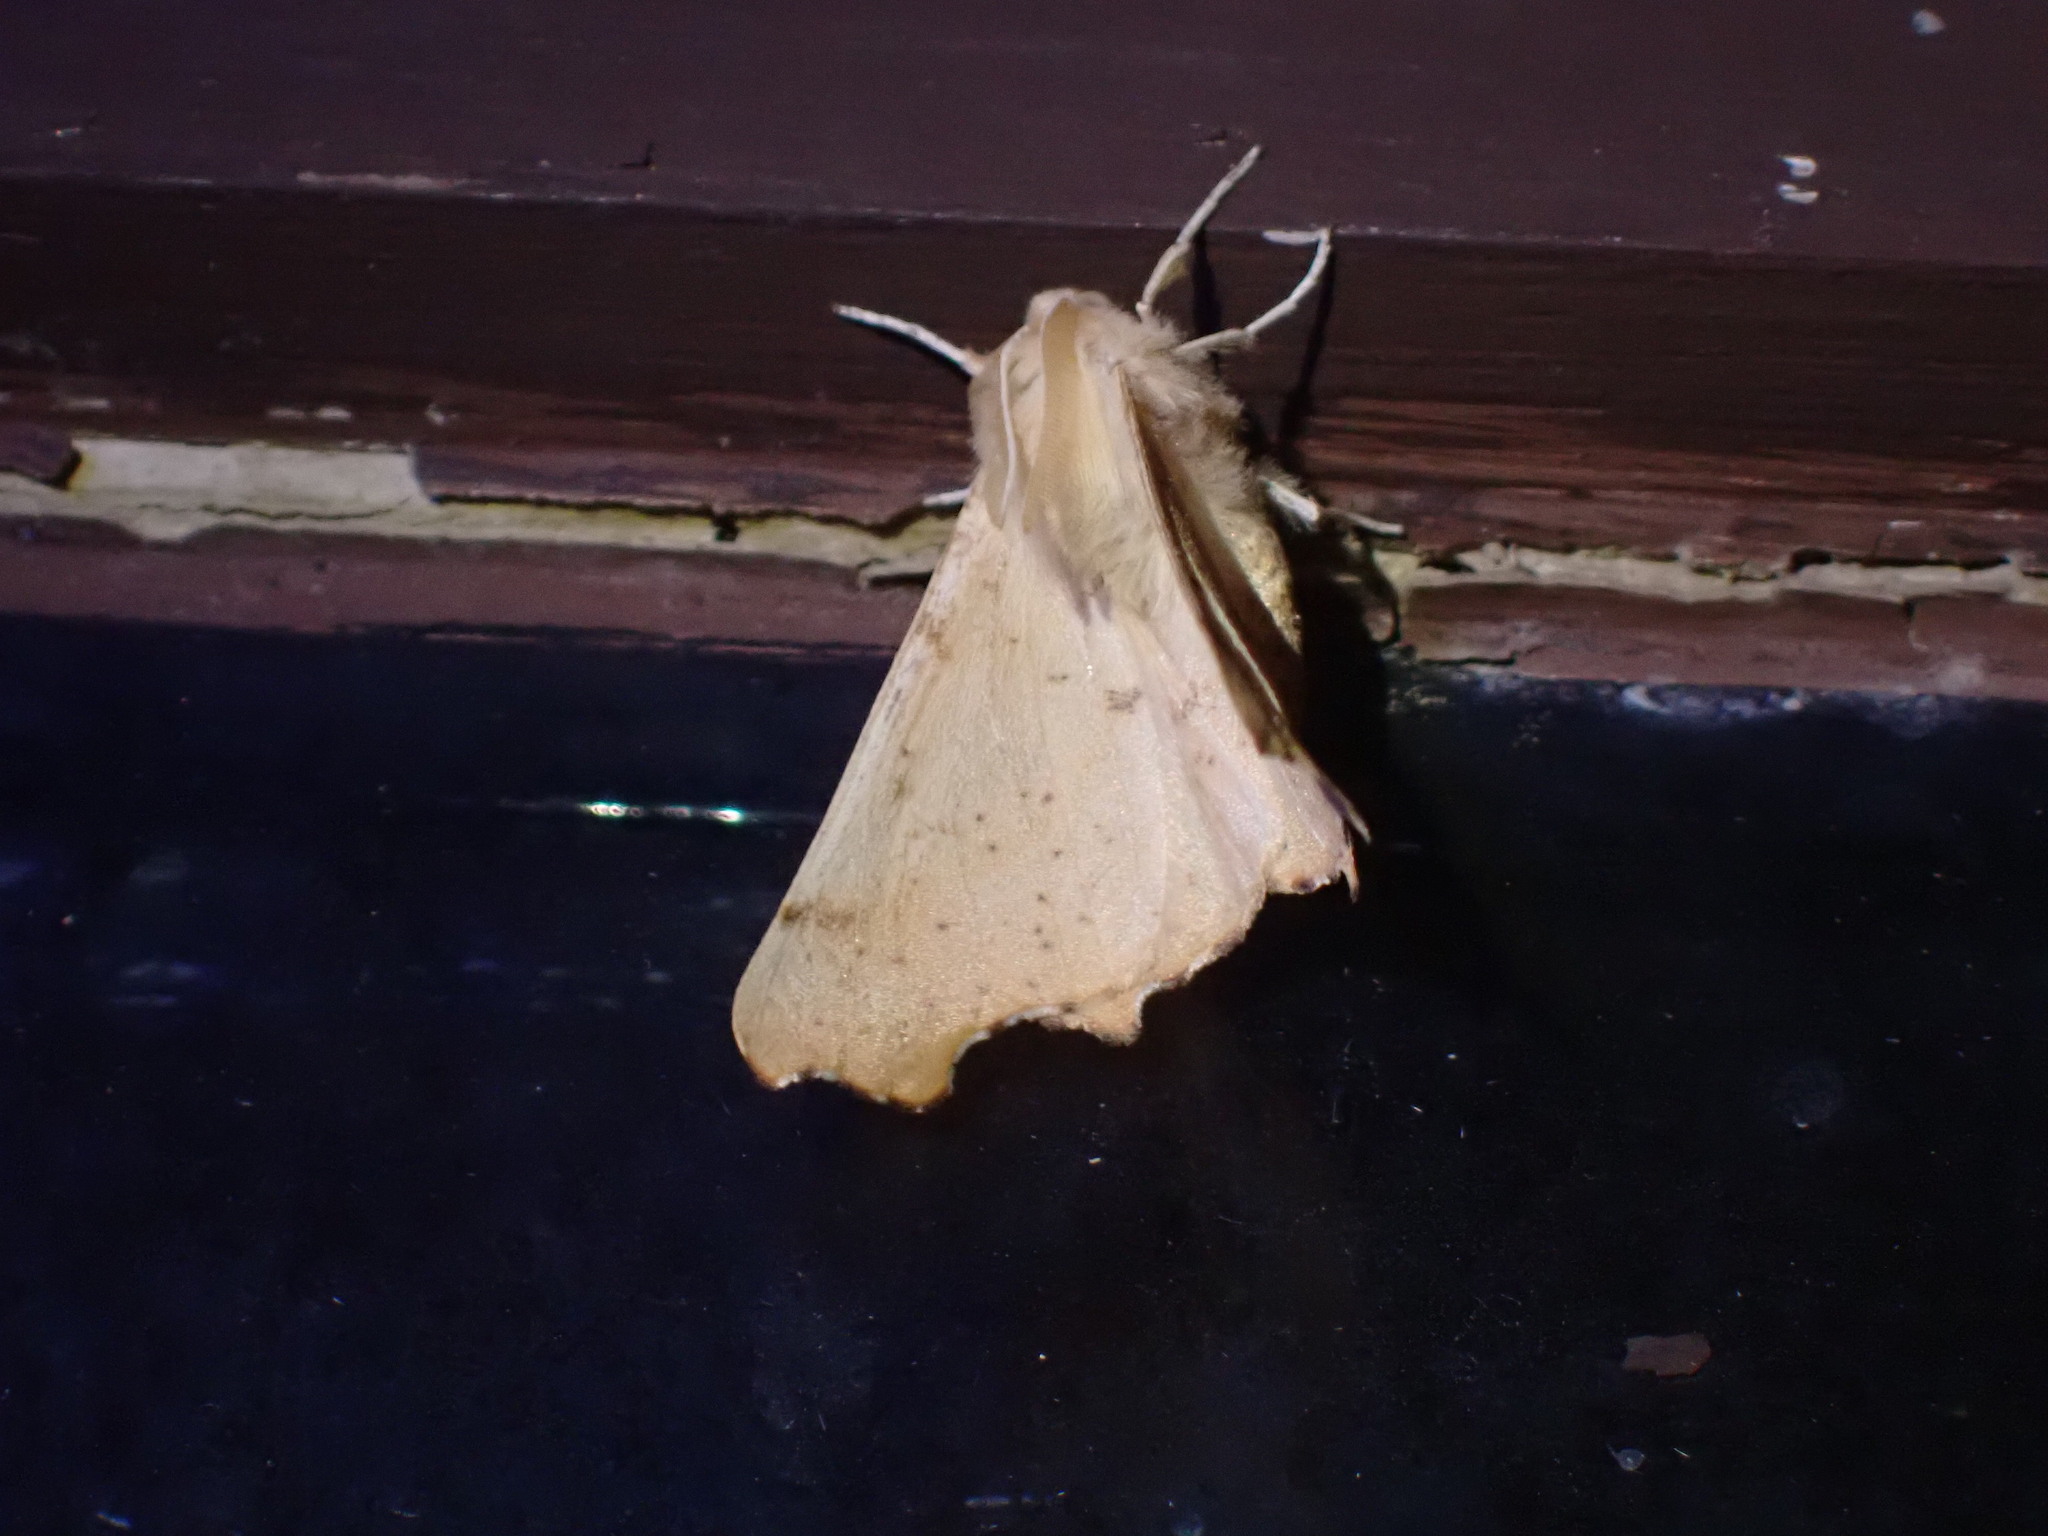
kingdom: Animalia
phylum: Arthropoda
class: Insecta
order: Lepidoptera
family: Geometridae
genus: Ennomos
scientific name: Ennomos magnaria
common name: Maple spanworm
